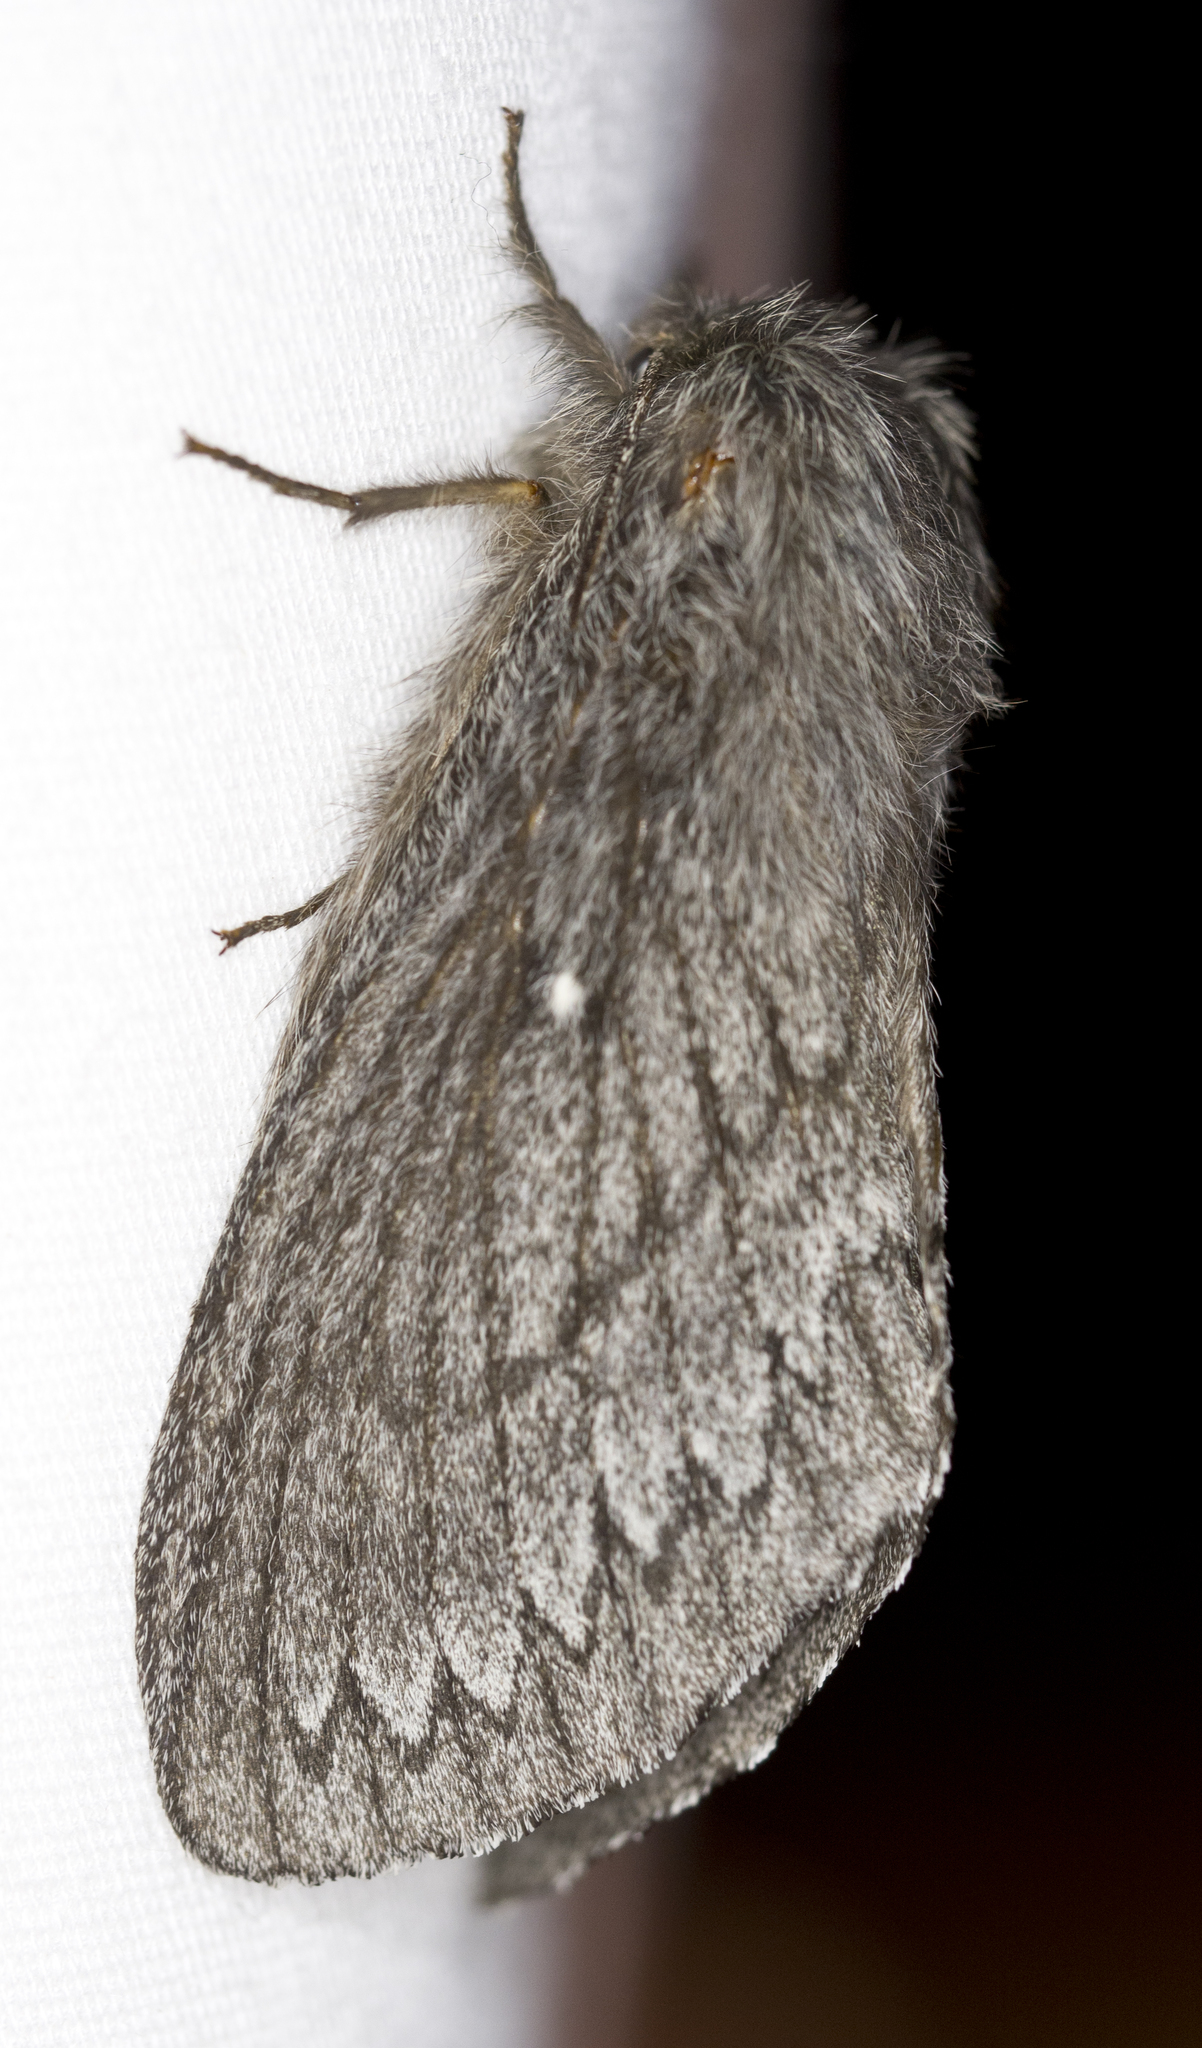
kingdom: Animalia
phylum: Arthropoda
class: Insecta
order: Lepidoptera
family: Lasiocampidae
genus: Gloveria
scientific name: Gloveria arizonensis
